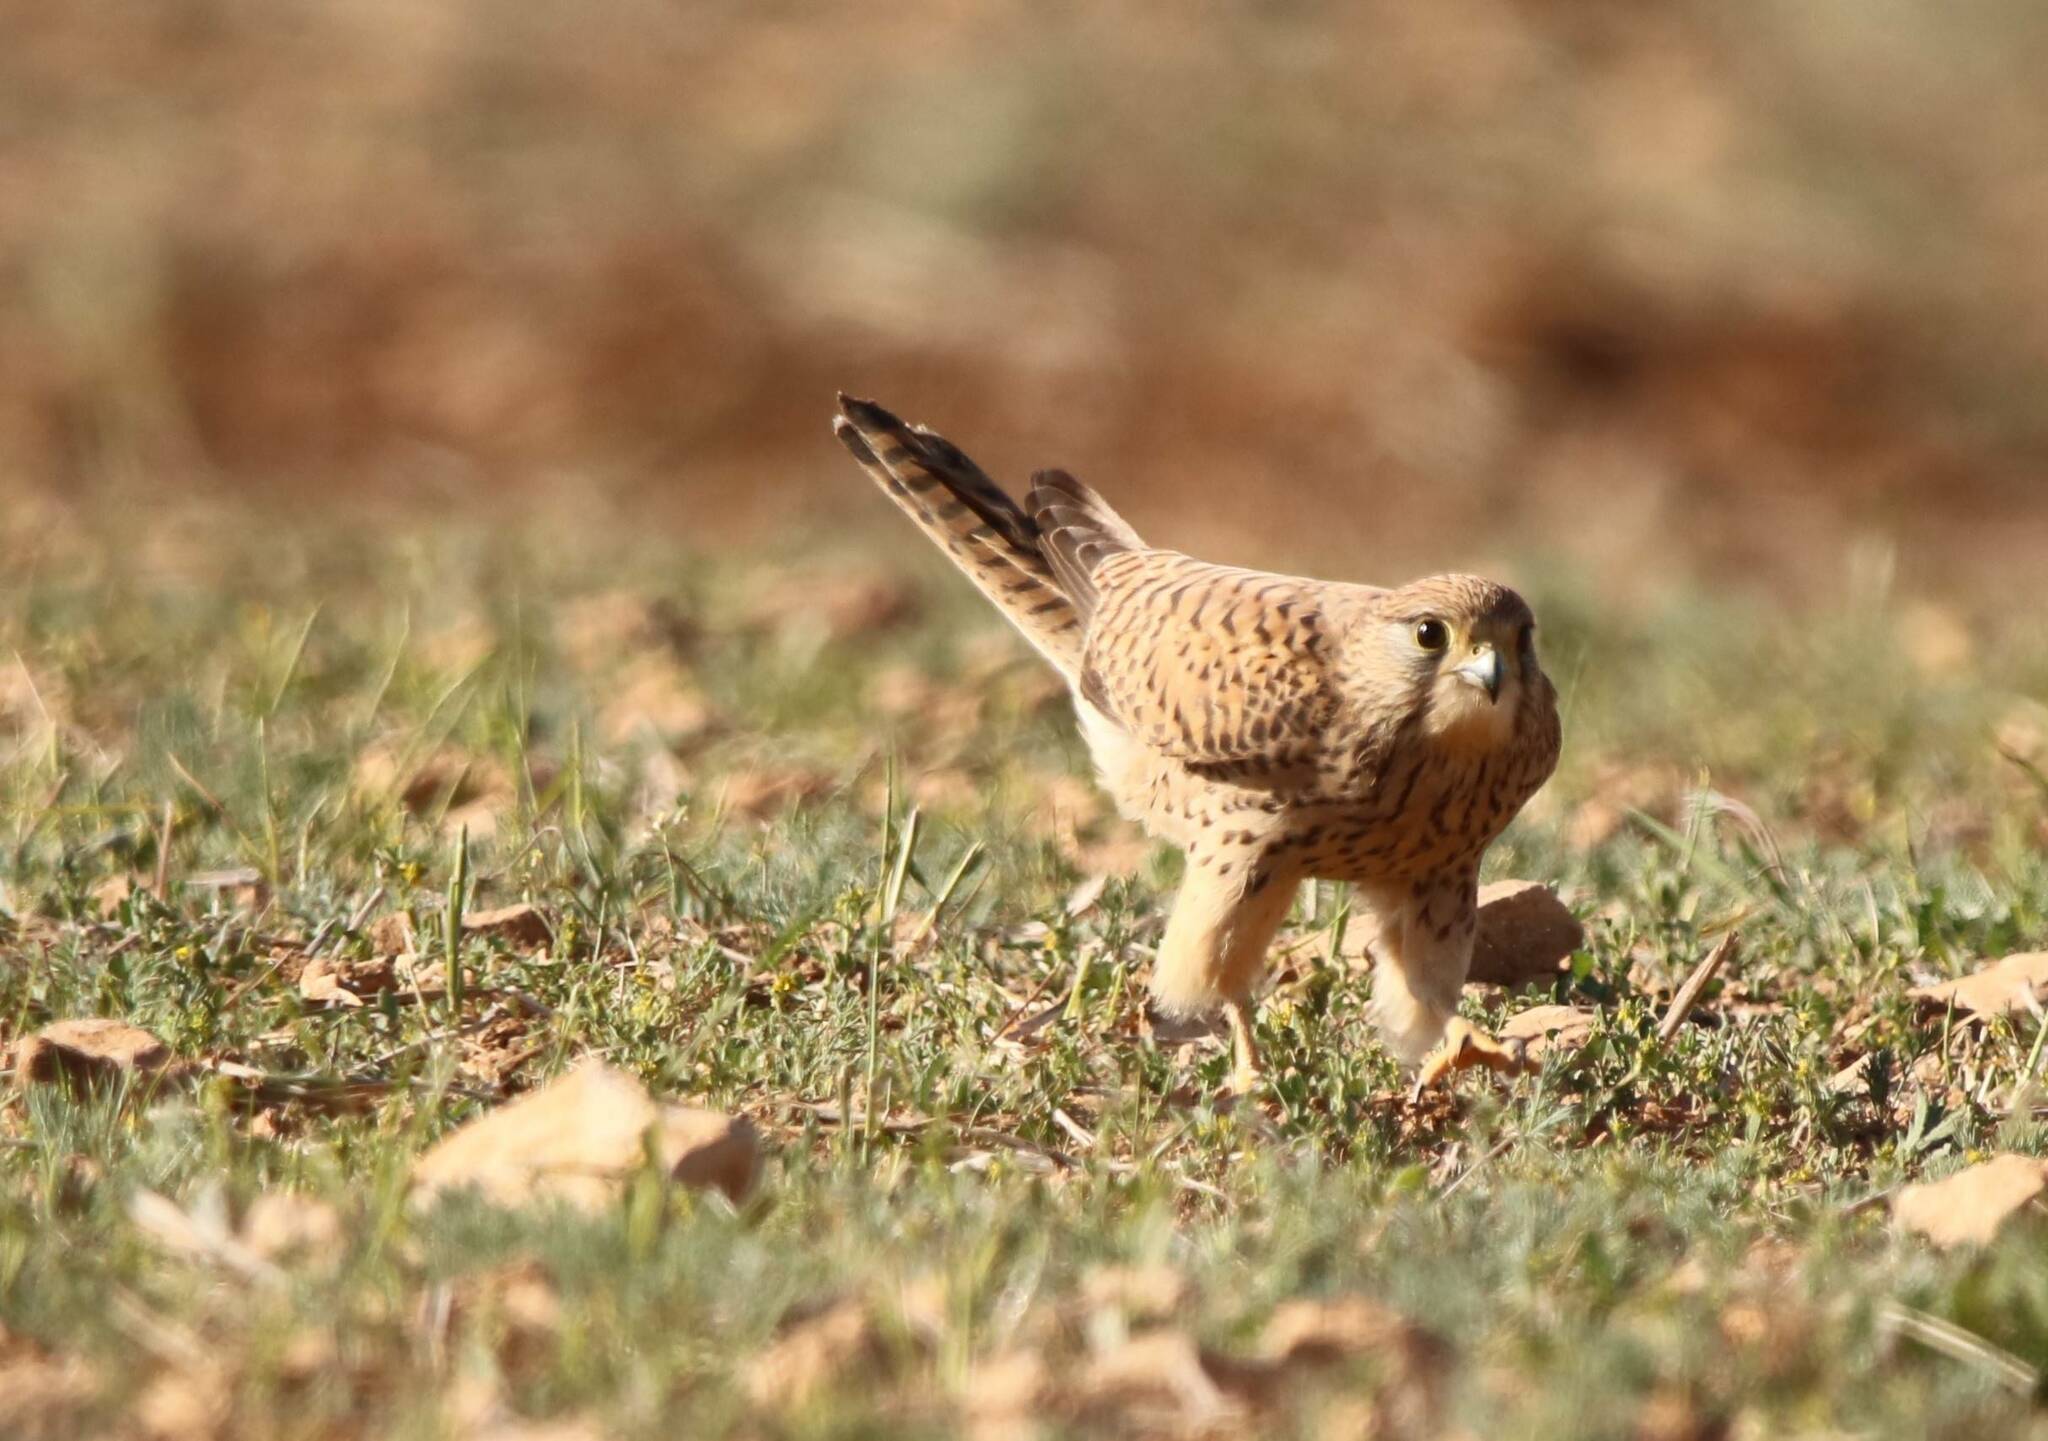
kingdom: Animalia
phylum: Chordata
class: Aves
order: Falconiformes
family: Falconidae
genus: Falco
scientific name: Falco tinnunculus
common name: Common kestrel
